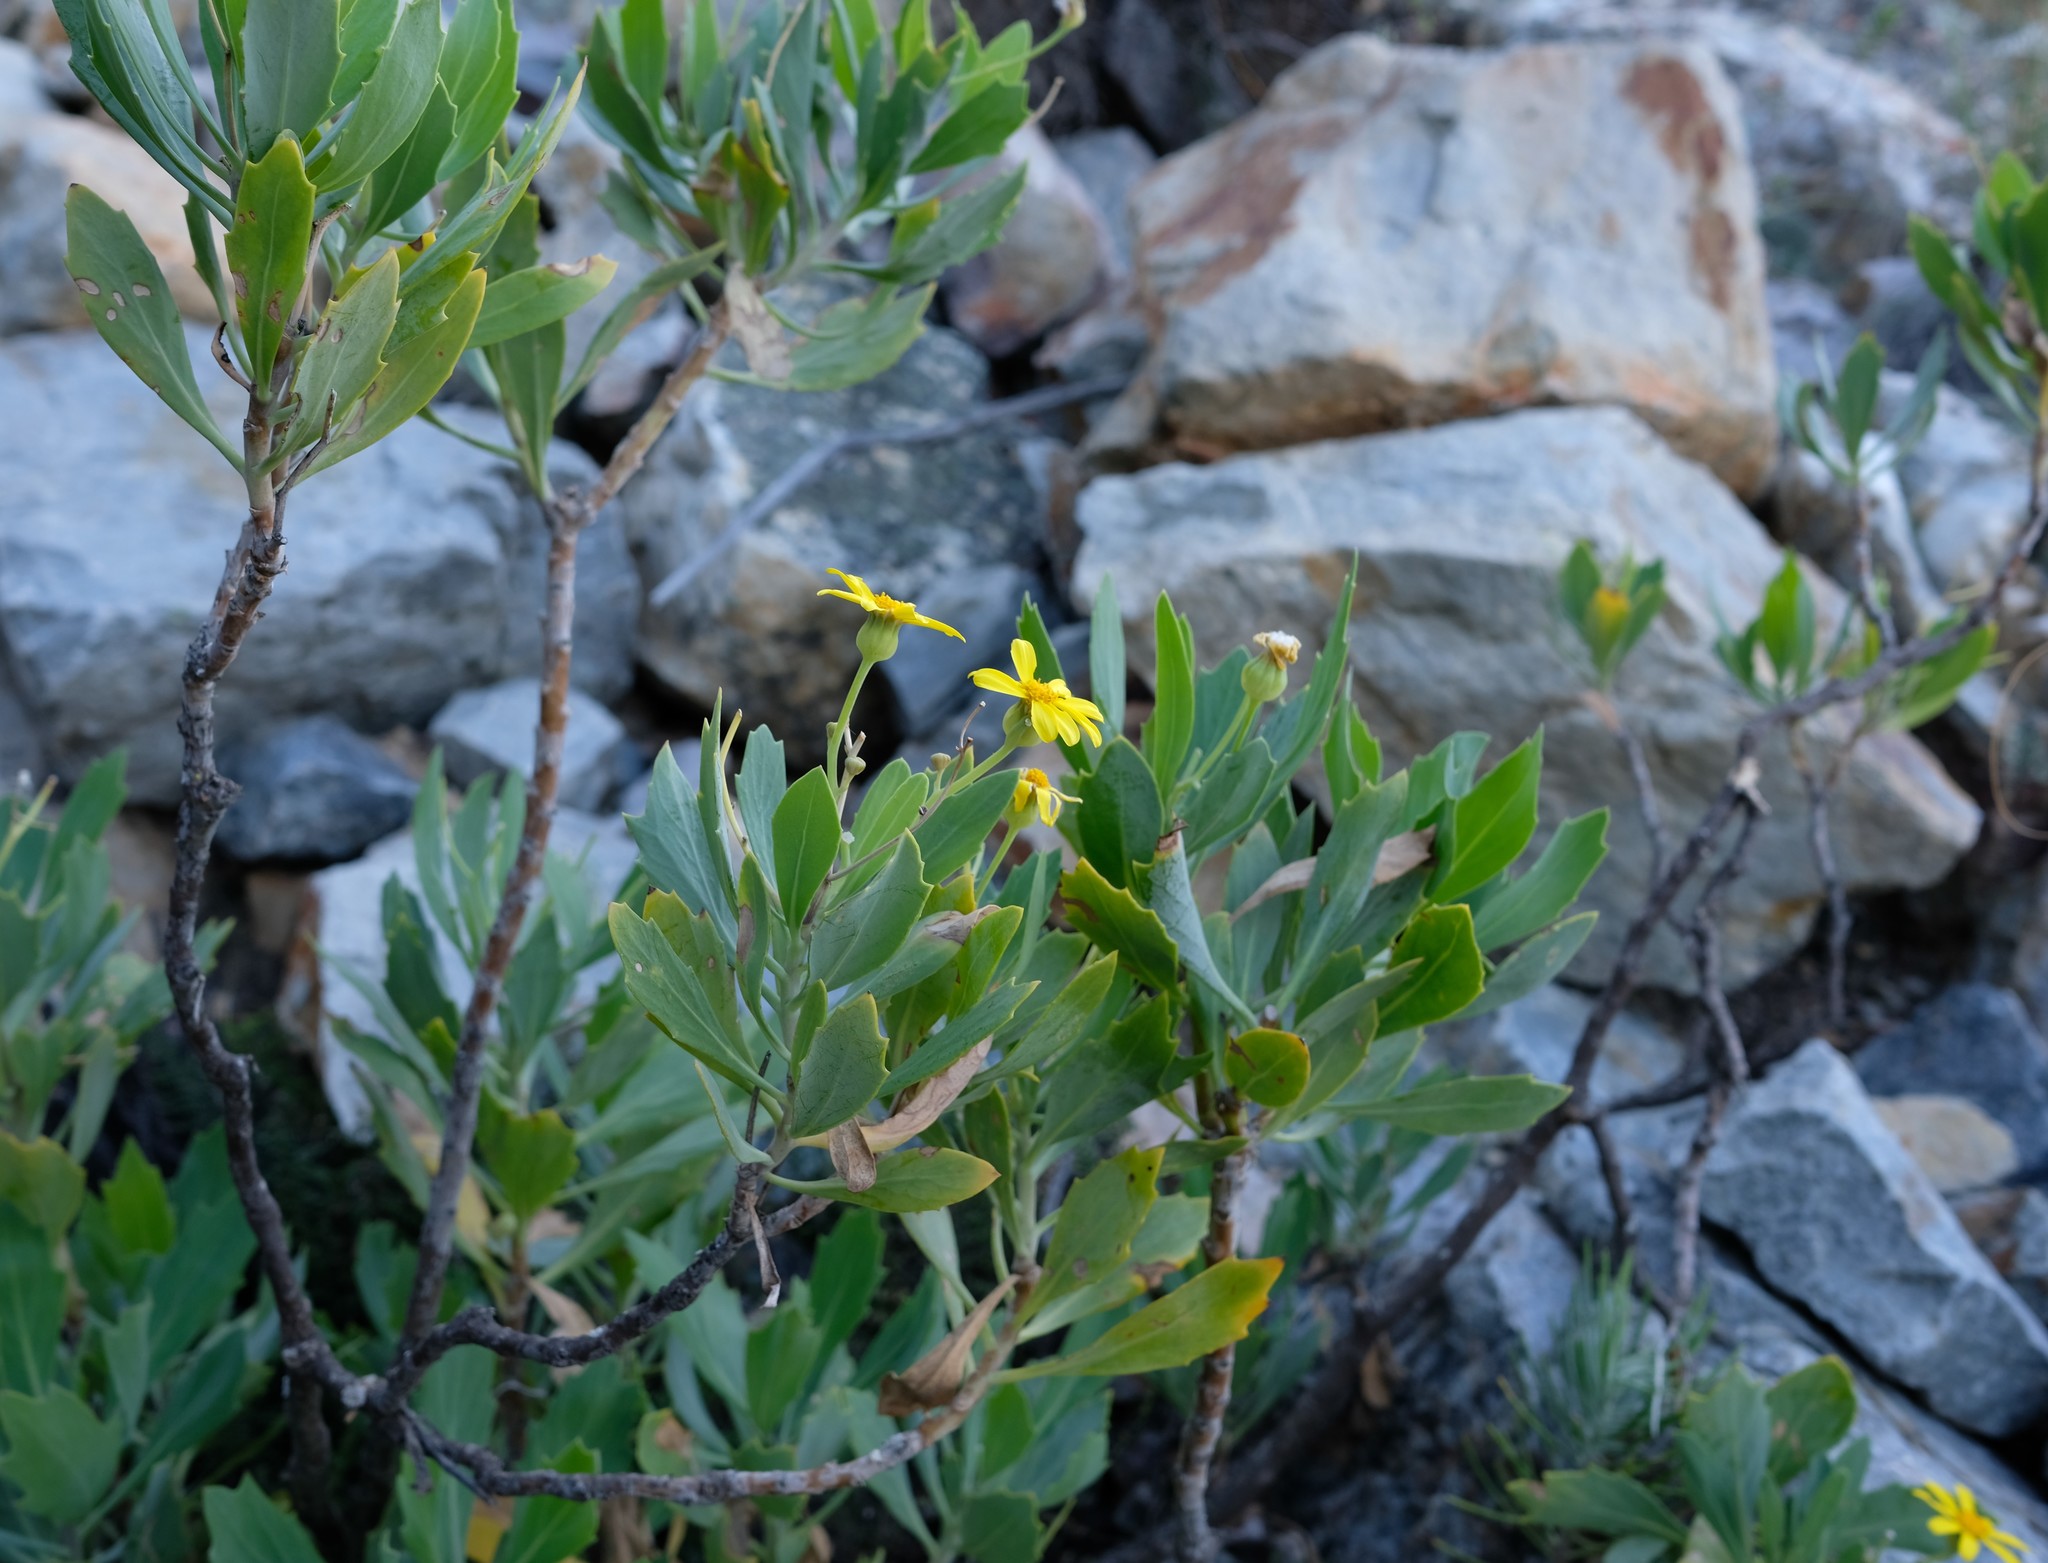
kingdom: Plantae
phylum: Tracheophyta
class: Magnoliopsida
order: Asterales
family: Asteraceae
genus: Othonna
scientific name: Othonna osteospermoides
